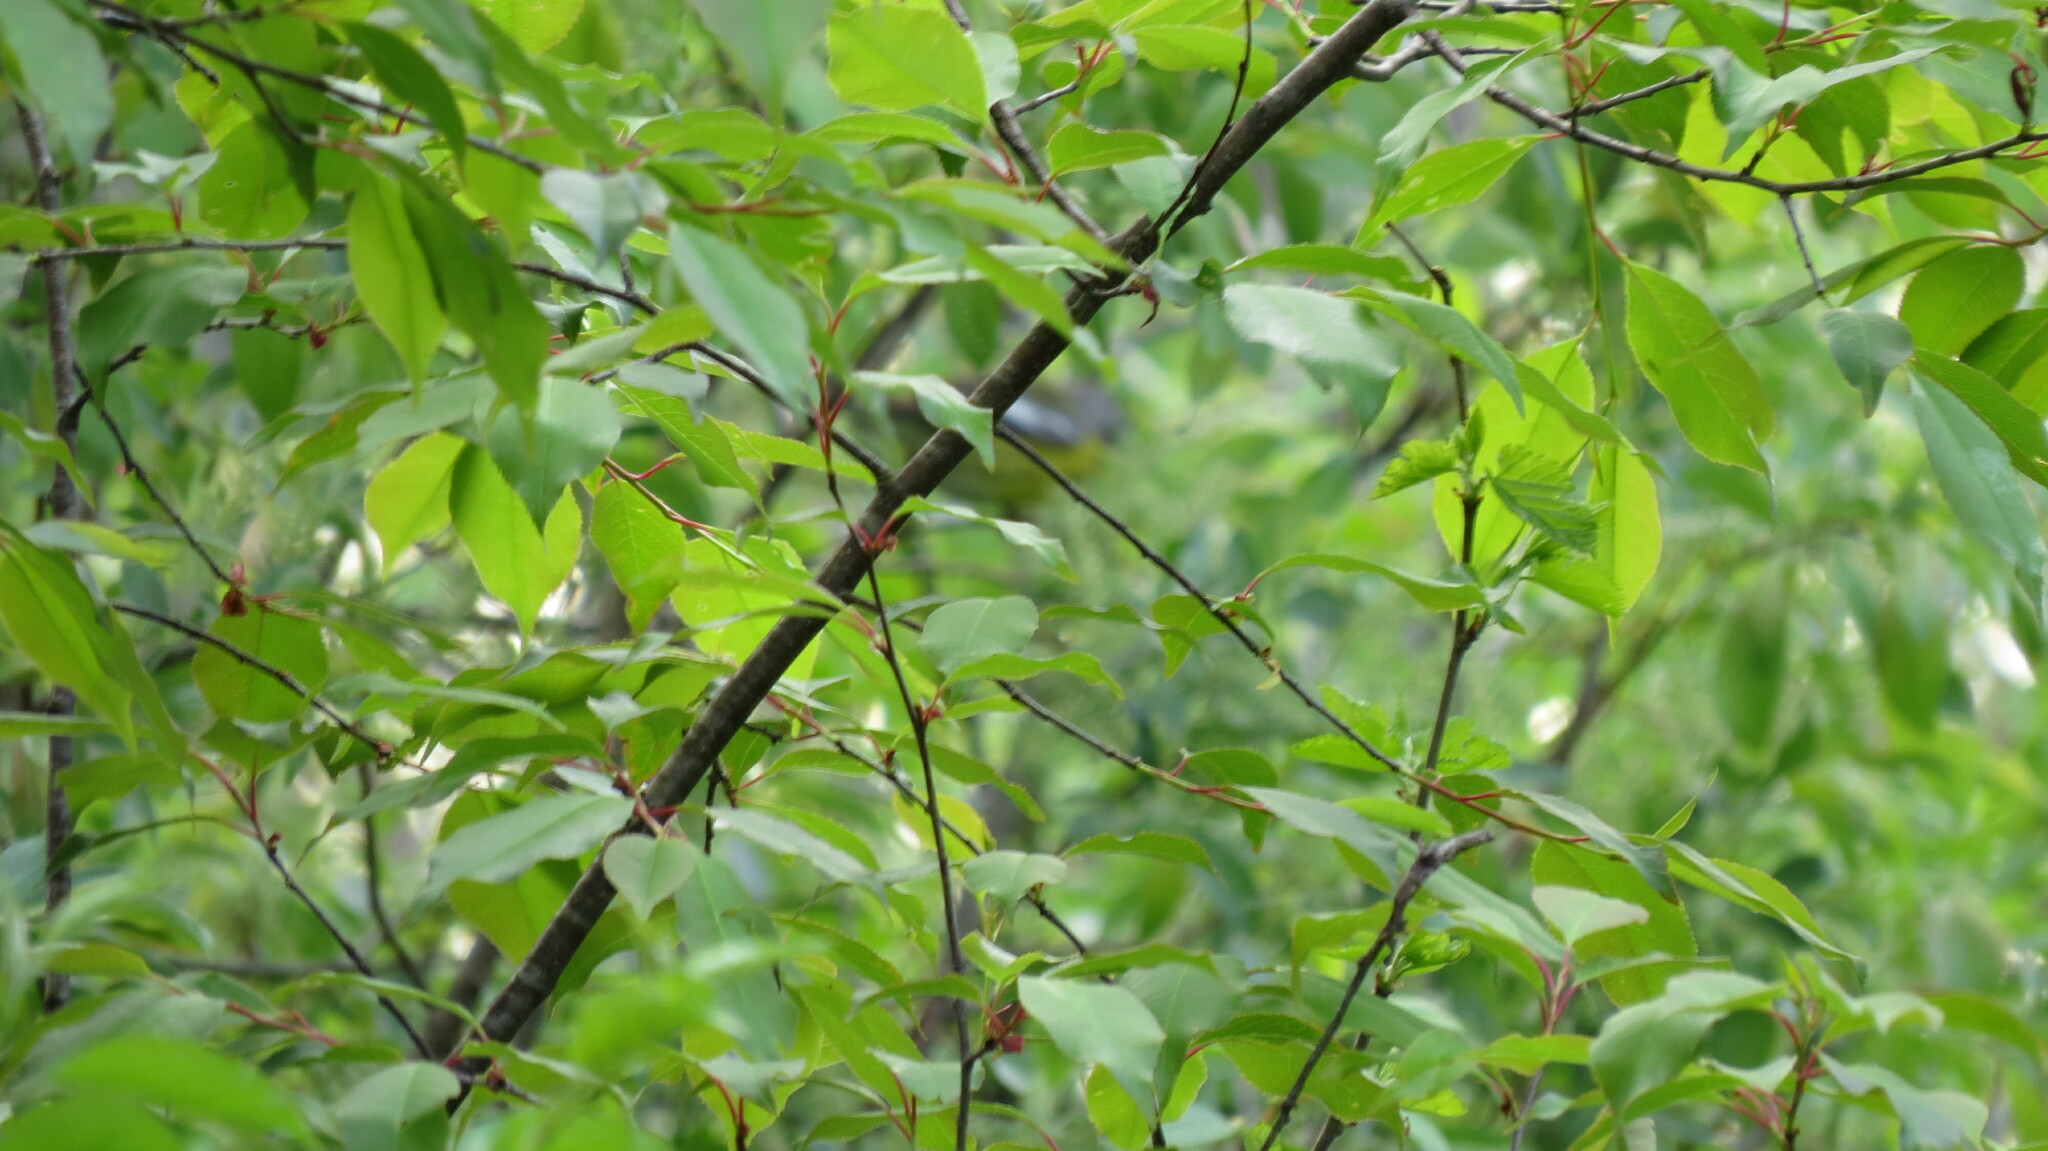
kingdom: Animalia
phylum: Chordata
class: Aves
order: Passeriformes
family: Parulidae
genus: Setophaga
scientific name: Setophaga magnolia
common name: Magnolia warbler
